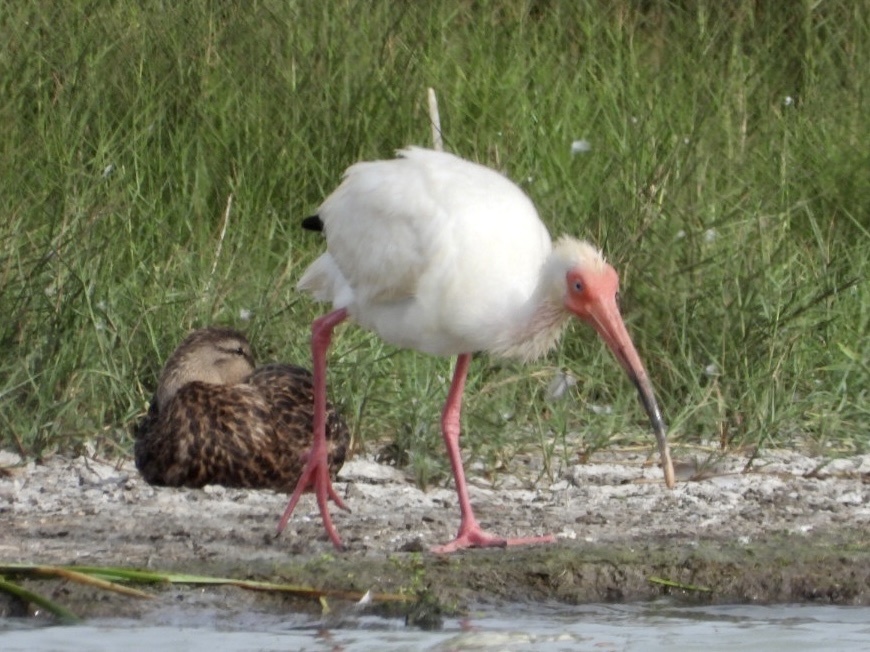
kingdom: Animalia
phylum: Chordata
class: Aves
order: Pelecaniformes
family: Threskiornithidae
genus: Eudocimus
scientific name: Eudocimus albus
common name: White ibis
